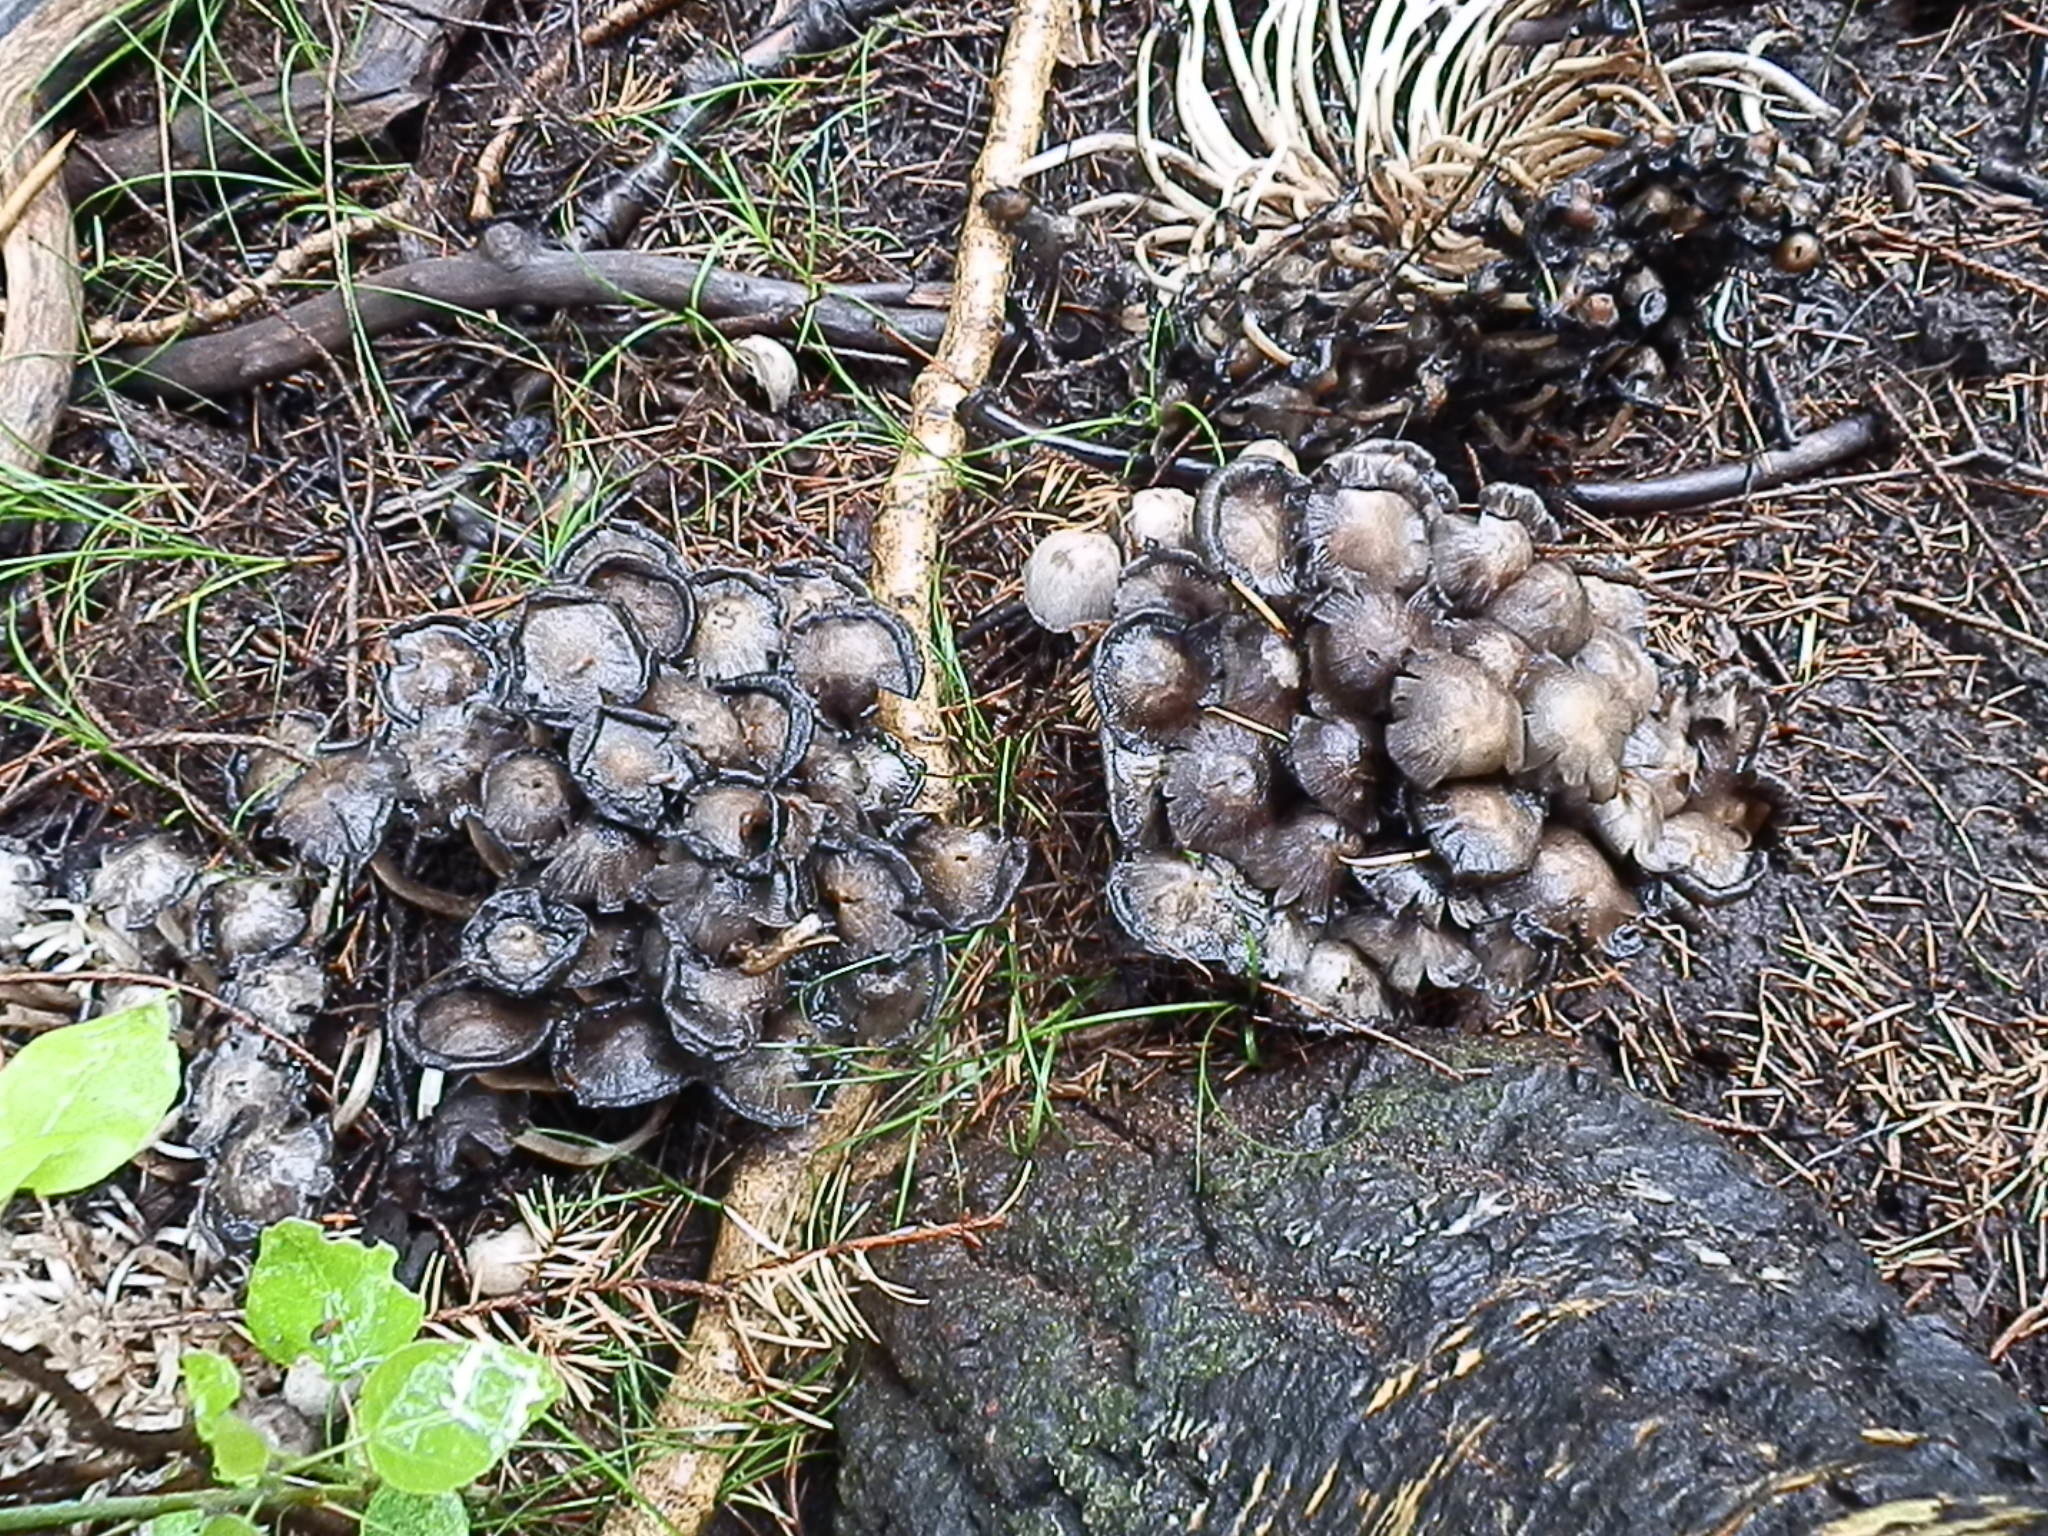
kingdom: Fungi
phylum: Basidiomycota
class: Agaricomycetes
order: Agaricales
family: Psathyrellaceae
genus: Coprinopsis
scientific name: Coprinopsis atramentaria
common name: Common ink-cap
